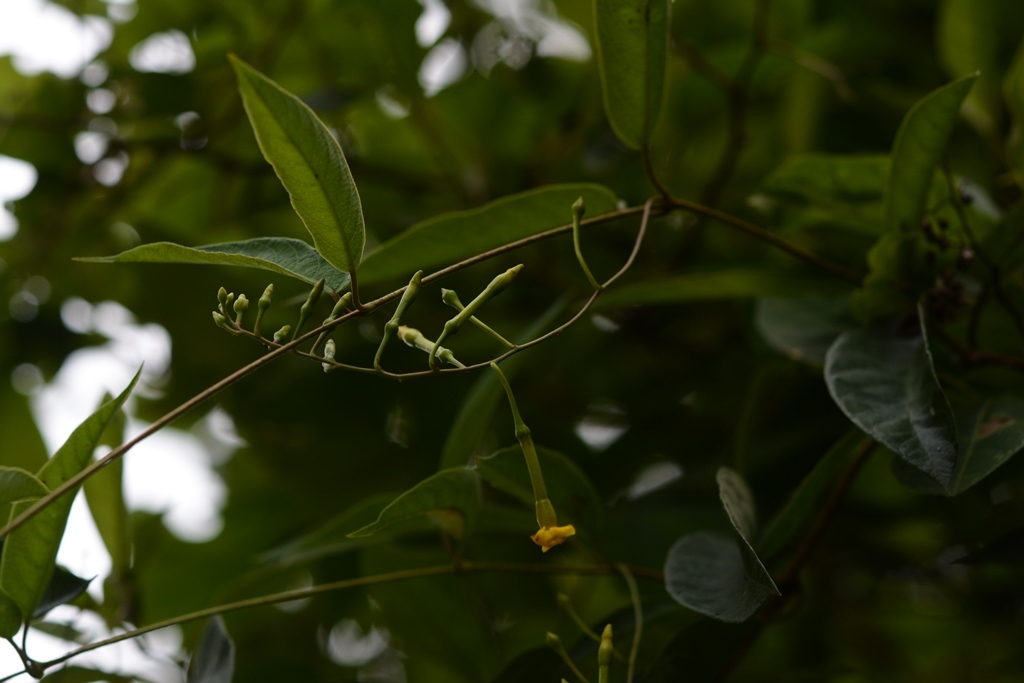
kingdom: Plantae
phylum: Tracheophyta
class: Magnoliopsida
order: Gentianales
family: Apocynaceae
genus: Mandevilla
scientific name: Mandevilla tubiflora
